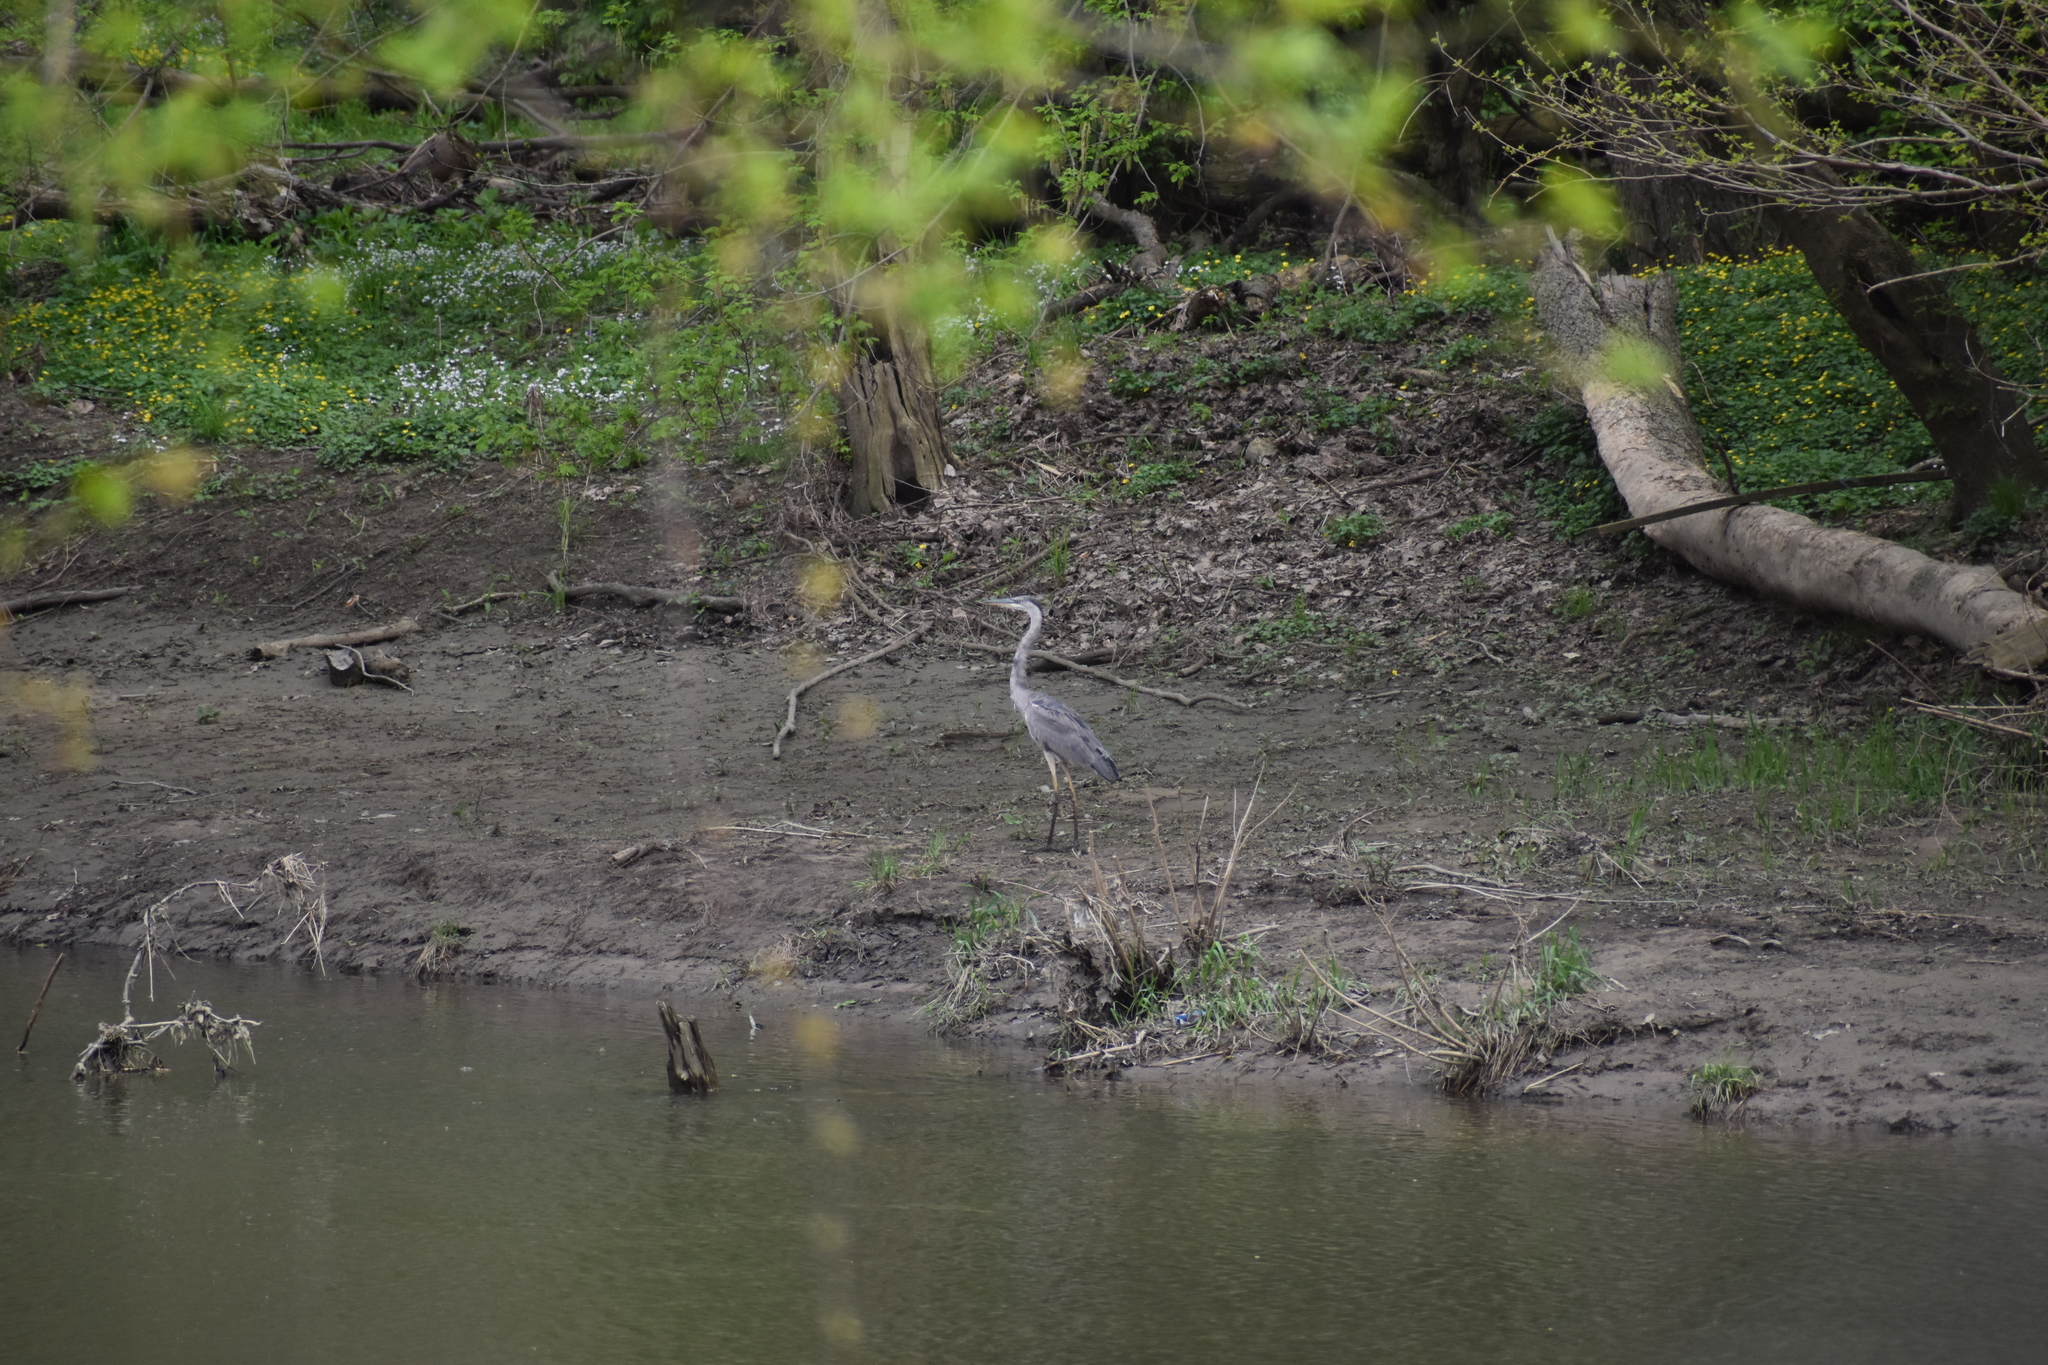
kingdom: Animalia
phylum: Chordata
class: Aves
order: Pelecaniformes
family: Ardeidae
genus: Ardea
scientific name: Ardea herodias
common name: Great blue heron
